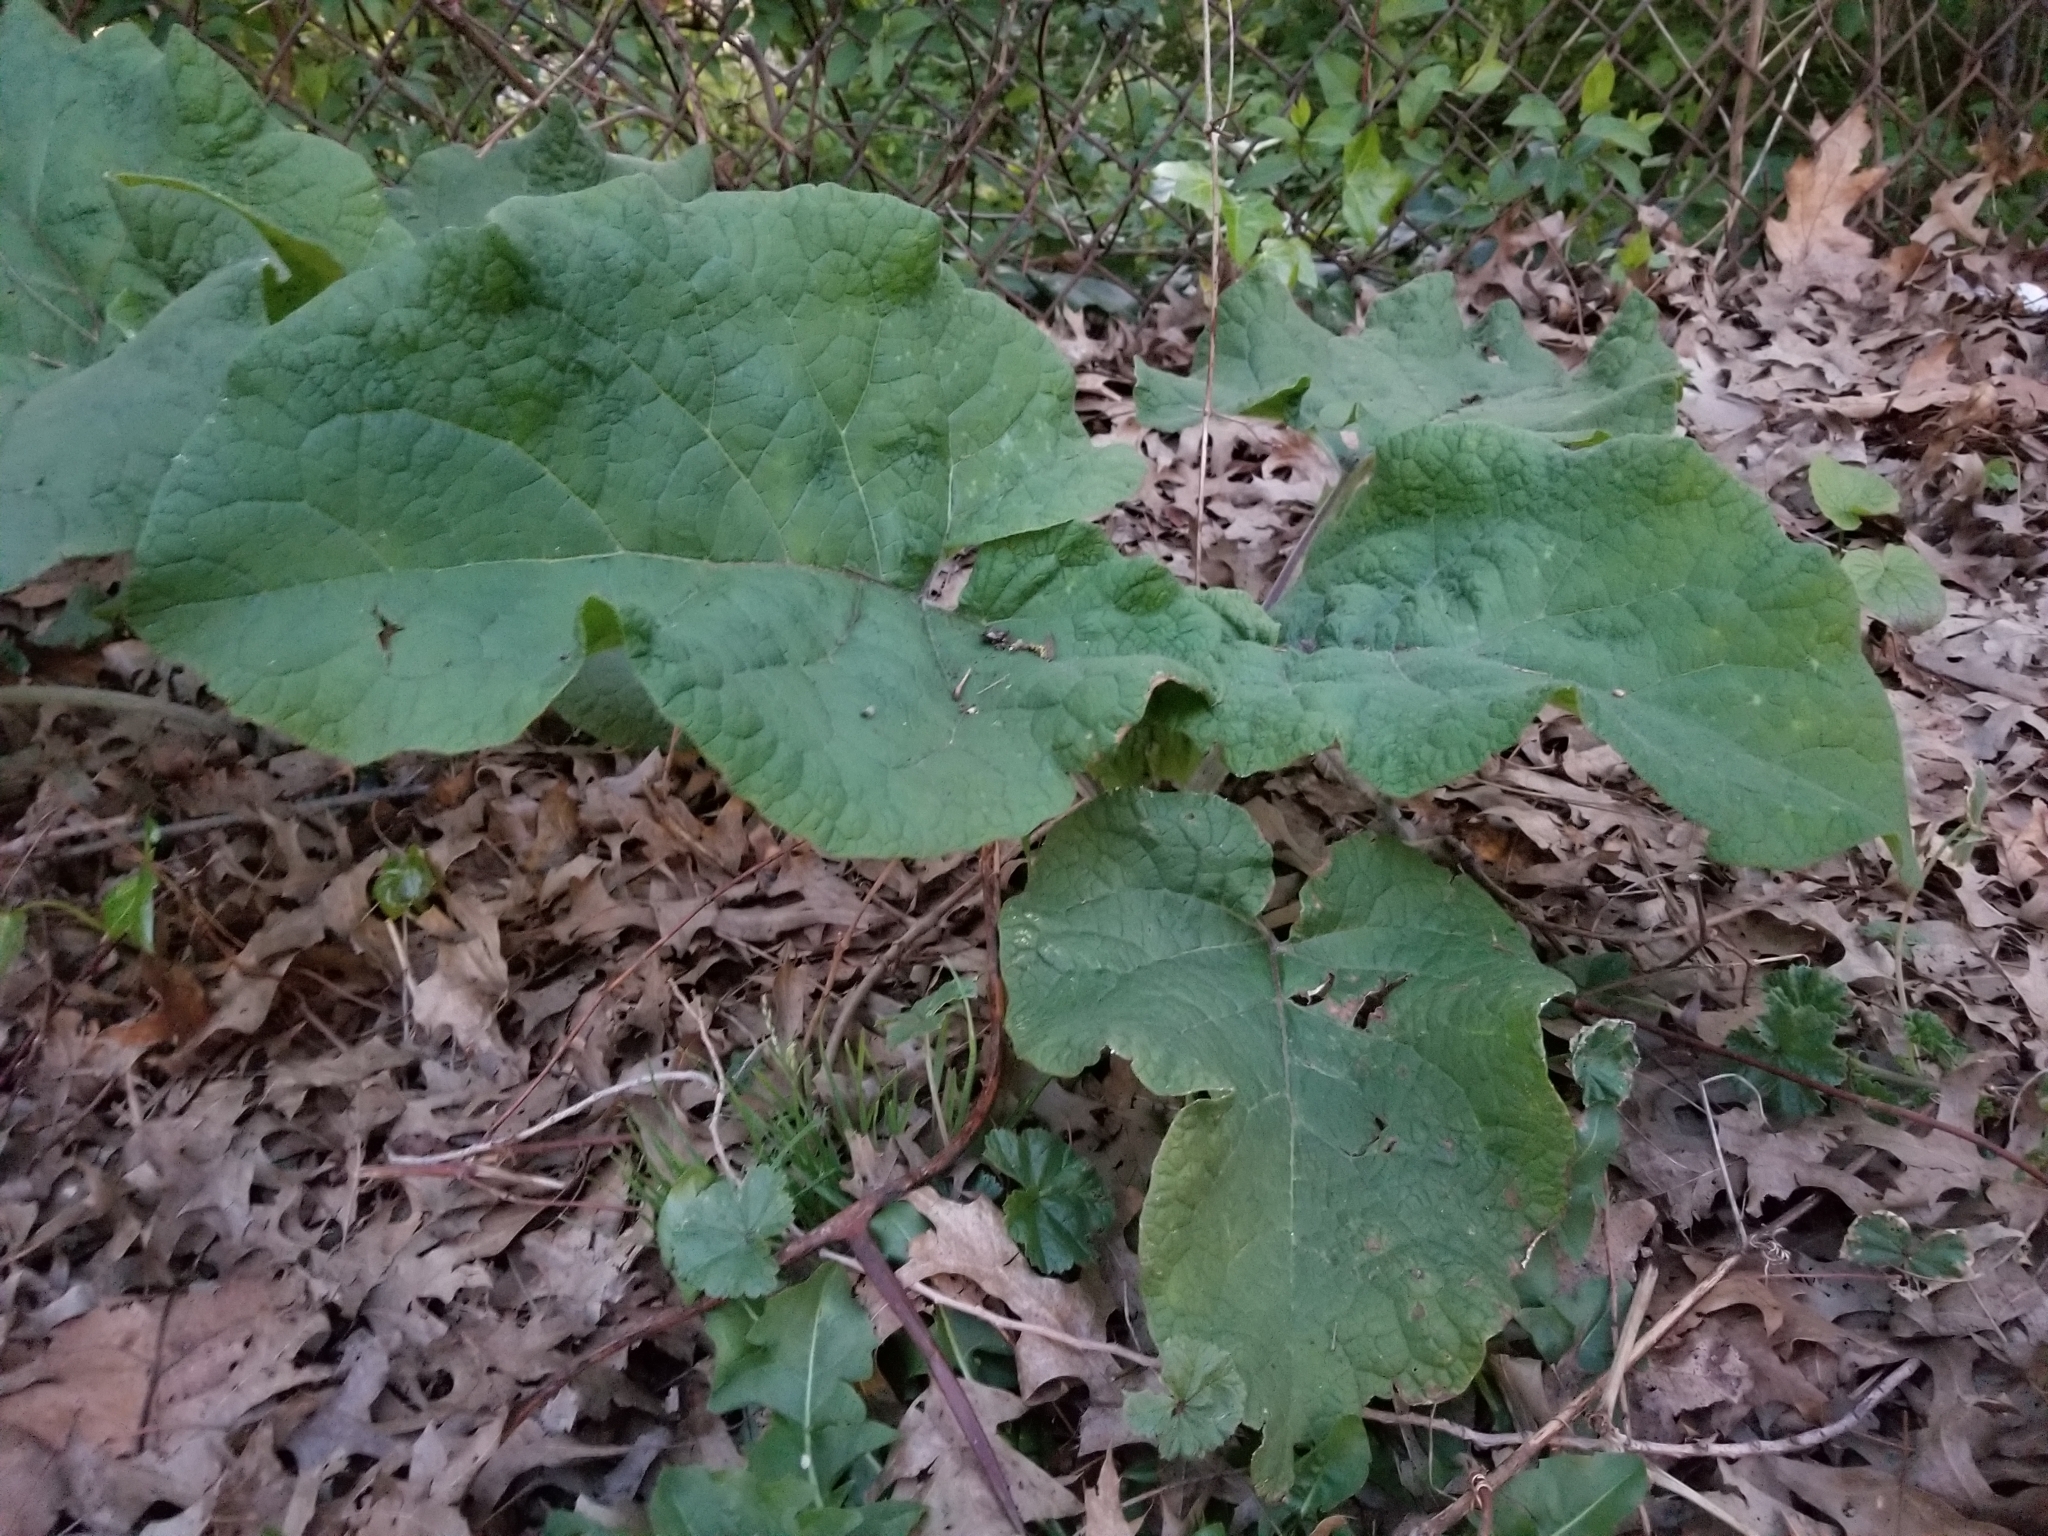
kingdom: Plantae
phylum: Tracheophyta
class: Magnoliopsida
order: Asterales
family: Asteraceae
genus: Arctium
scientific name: Arctium
